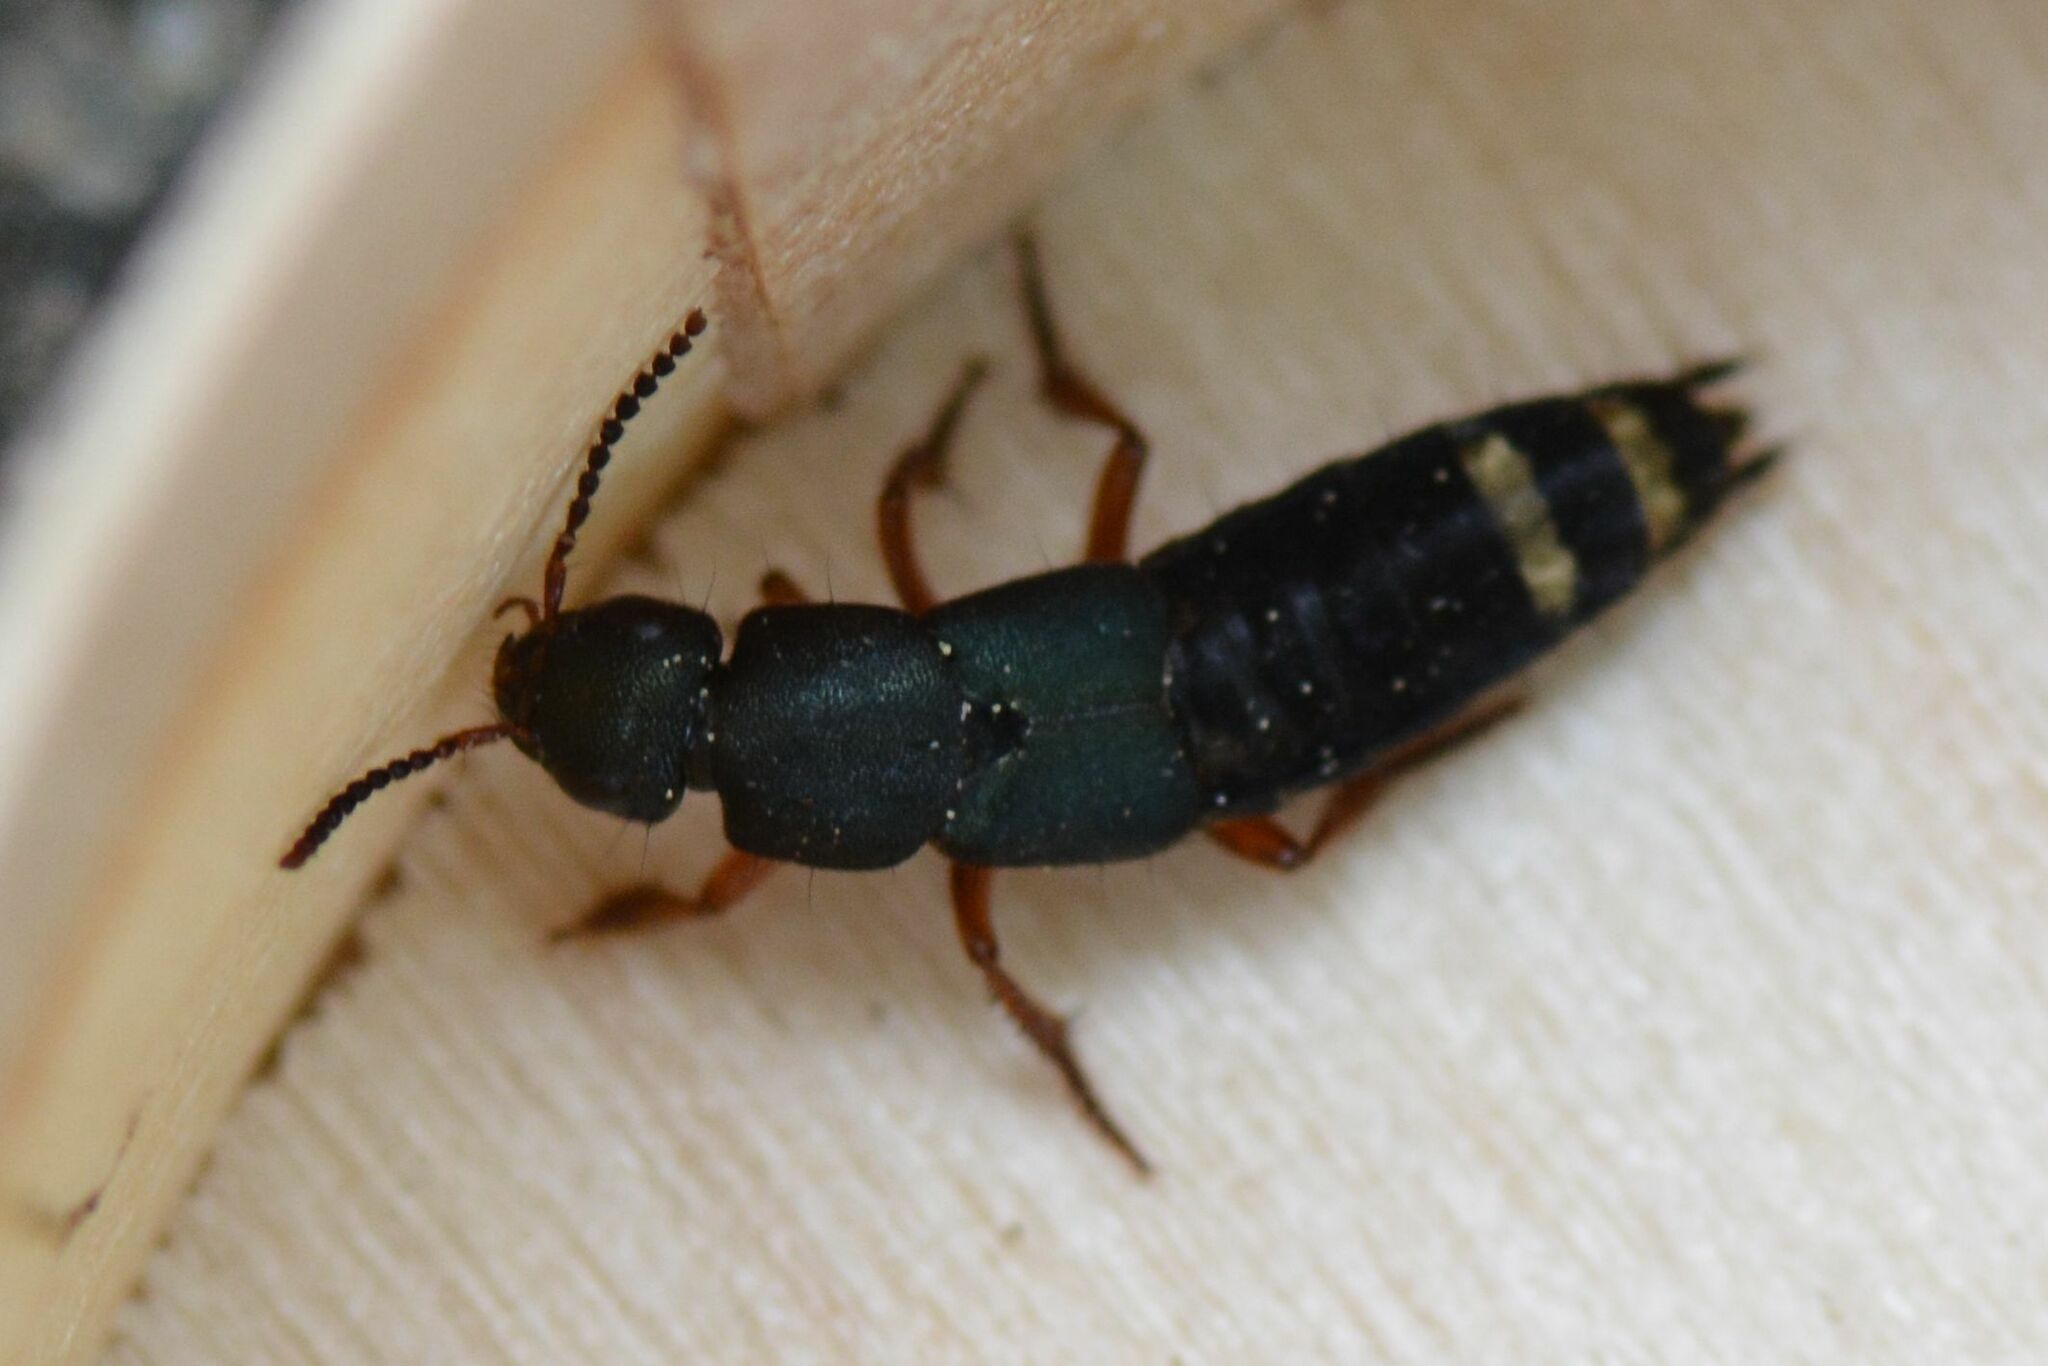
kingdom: Animalia
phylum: Arthropoda
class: Insecta
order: Coleoptera
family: Staphylinidae
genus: Platydracus
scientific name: Platydracus fulvipes
